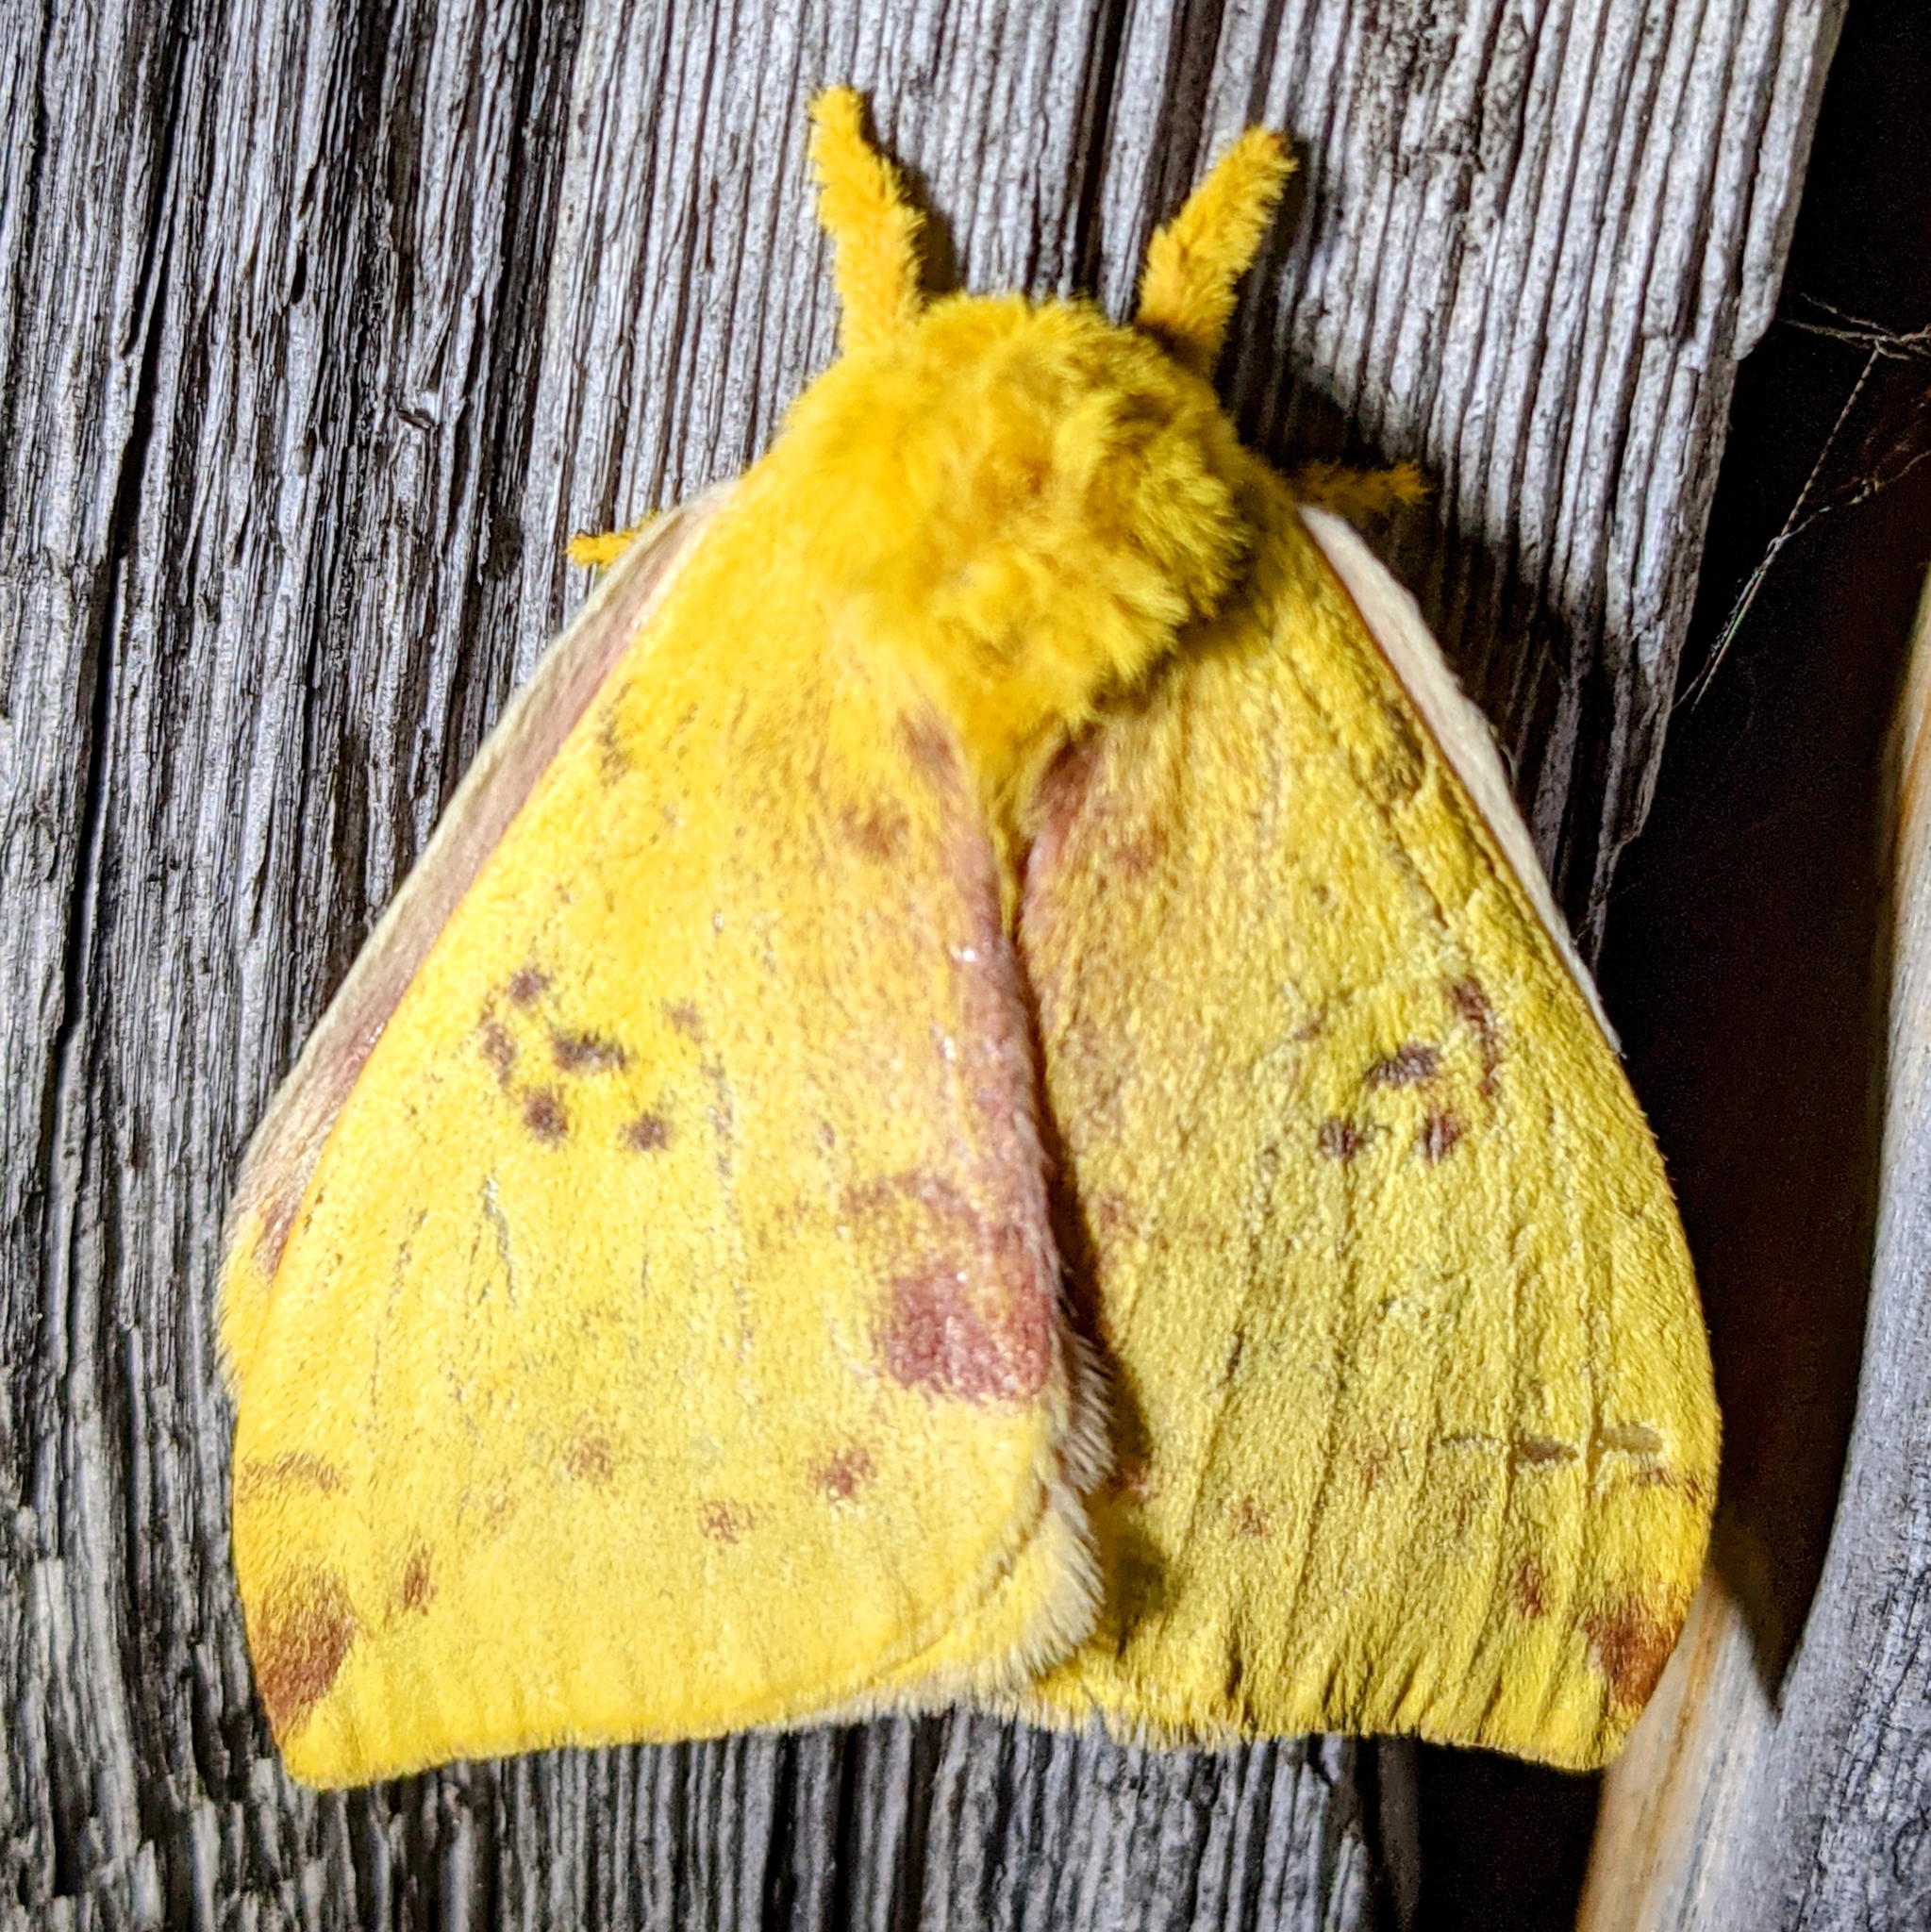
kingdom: Animalia
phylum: Arthropoda
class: Insecta
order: Lepidoptera
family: Saturniidae
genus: Automeris
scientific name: Automeris io
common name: Io moth
